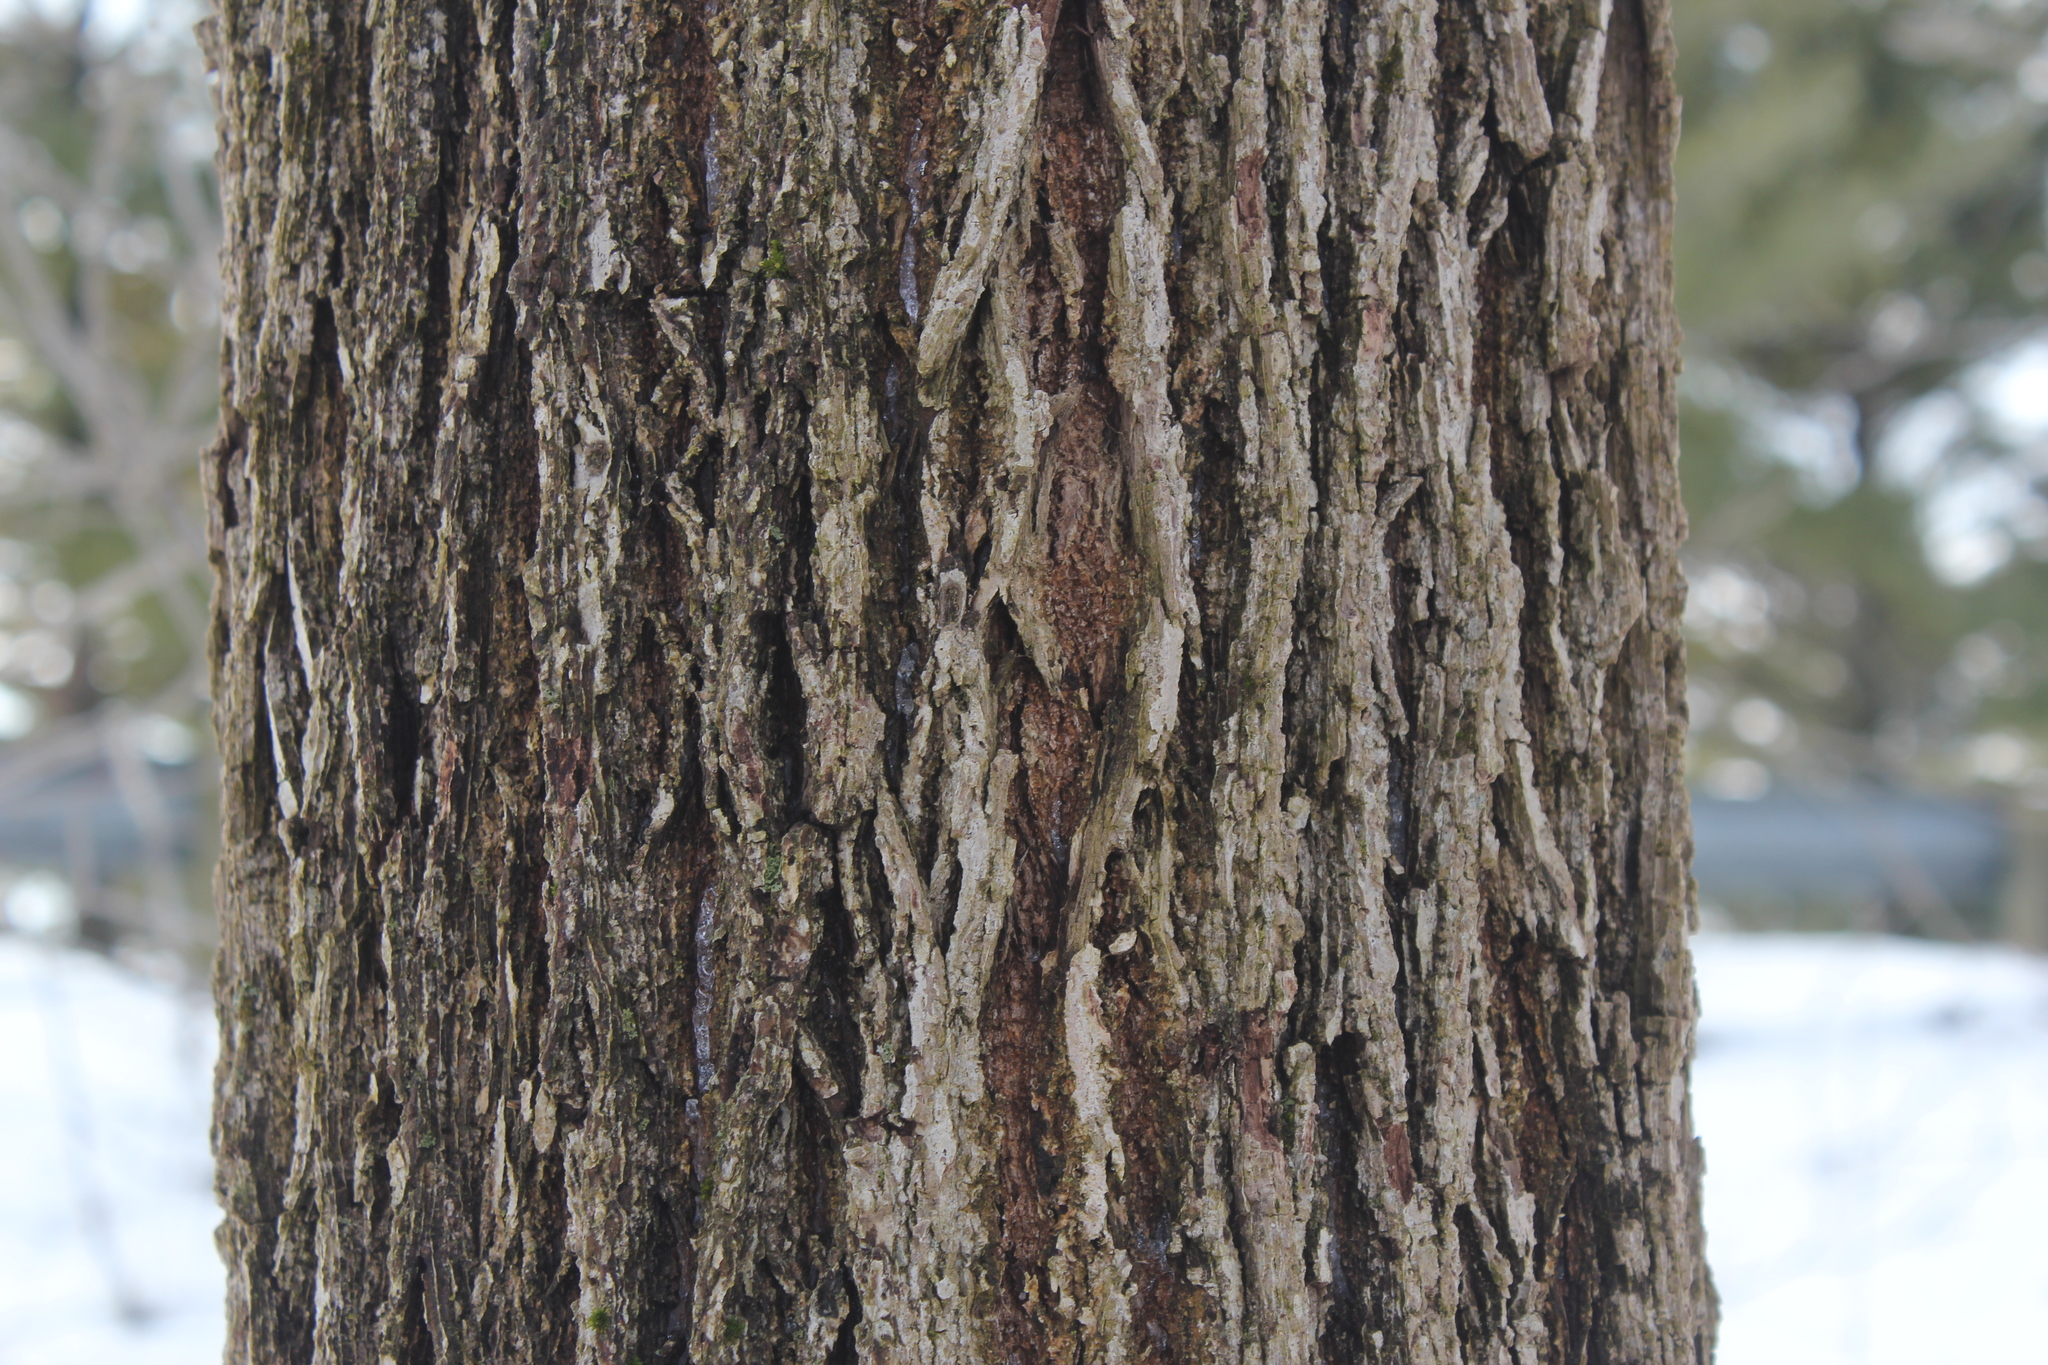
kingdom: Plantae
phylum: Tracheophyta
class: Magnoliopsida
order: Fagales
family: Juglandaceae
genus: Juglans
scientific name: Juglans nigra
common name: Black walnut
